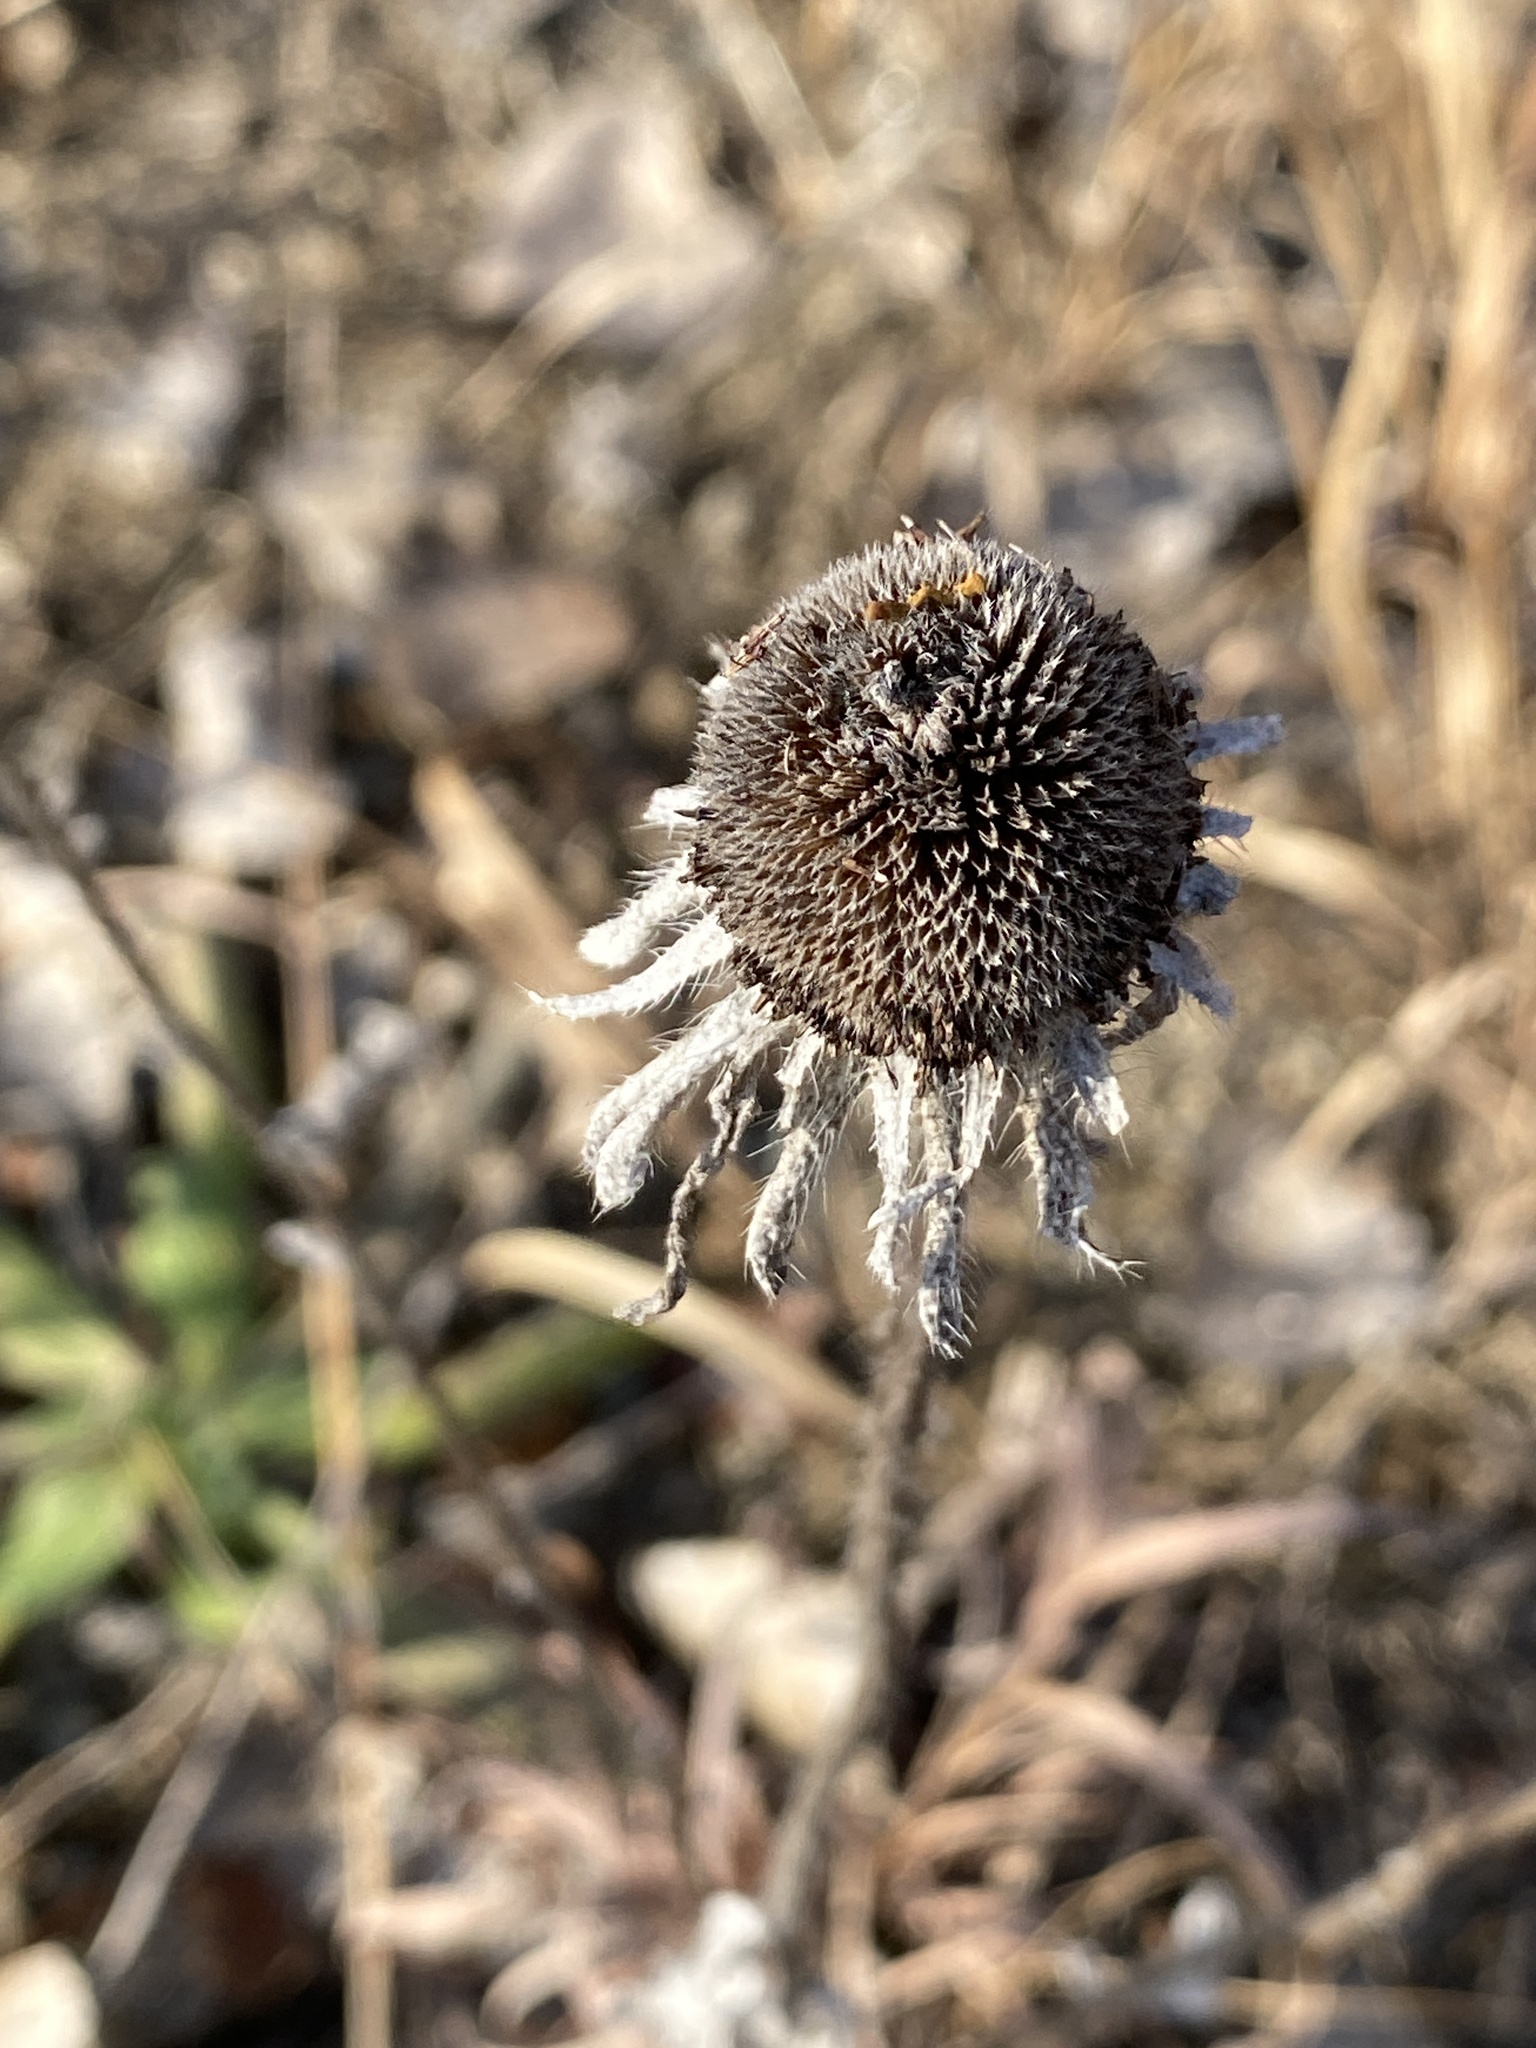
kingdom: Plantae
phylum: Tracheophyta
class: Magnoliopsida
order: Asterales
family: Asteraceae
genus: Rudbeckia
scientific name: Rudbeckia hirta
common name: Black-eyed-susan
